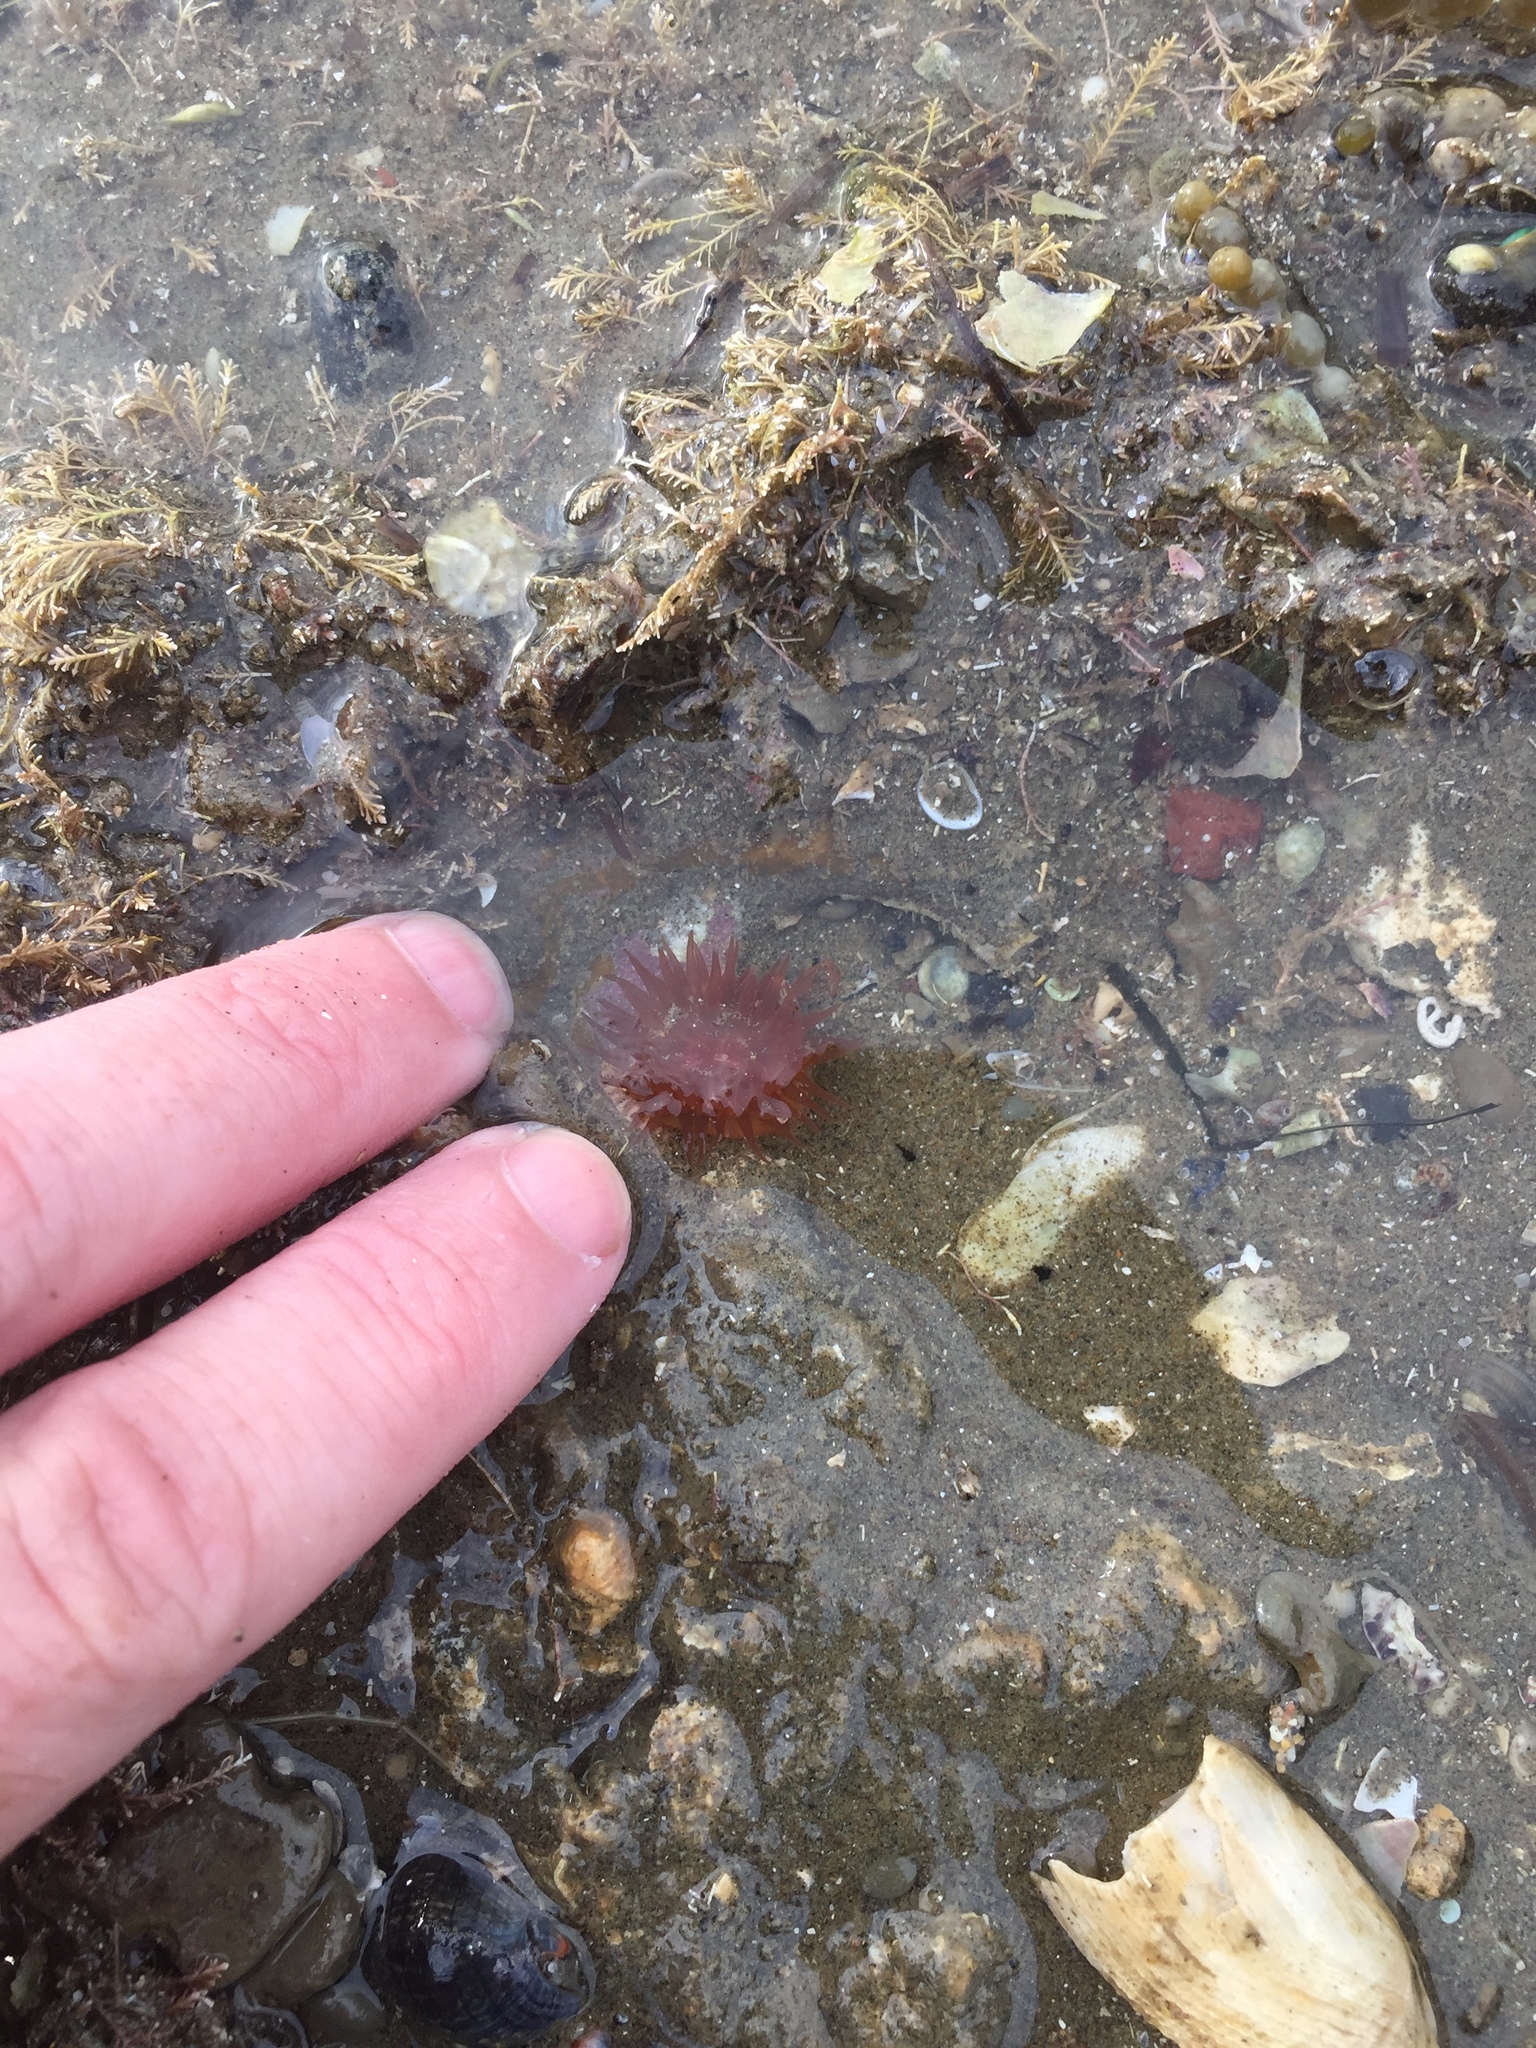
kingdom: Animalia
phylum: Cnidaria
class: Anthozoa
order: Actiniaria
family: Actiniidae
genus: Isactinia
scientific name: Isactinia olivacea
